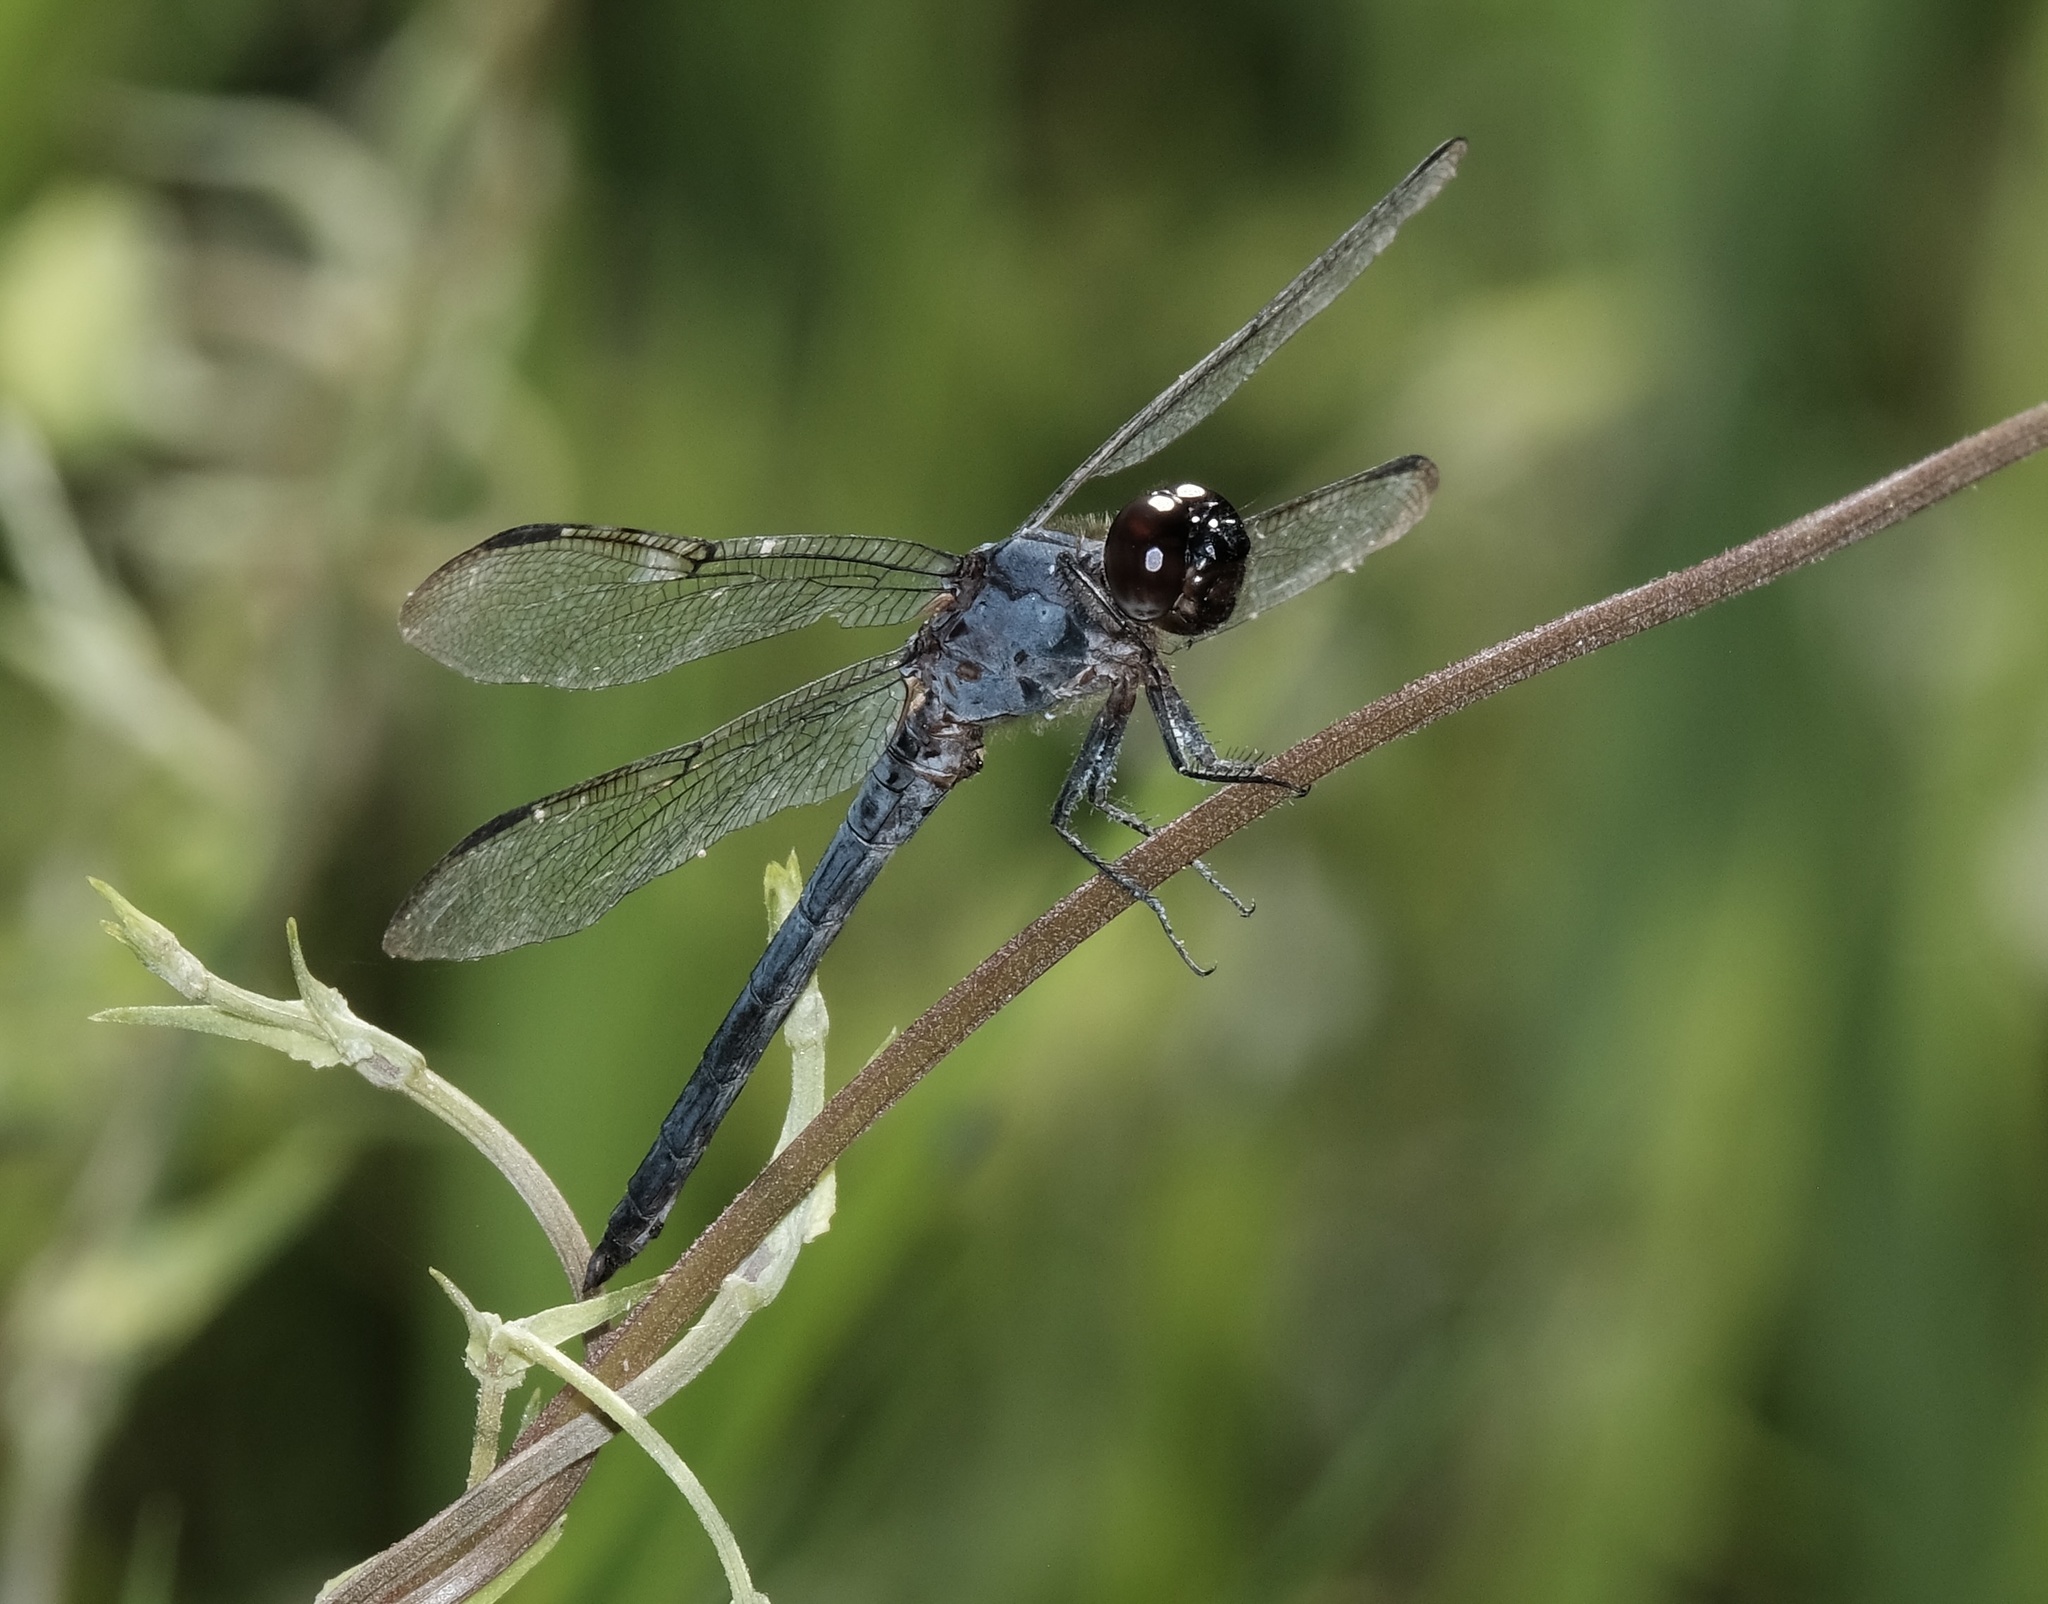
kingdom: Animalia
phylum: Arthropoda
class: Insecta
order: Odonata
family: Libellulidae
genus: Libellula
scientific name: Libellula incesta
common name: Slaty skimmer
